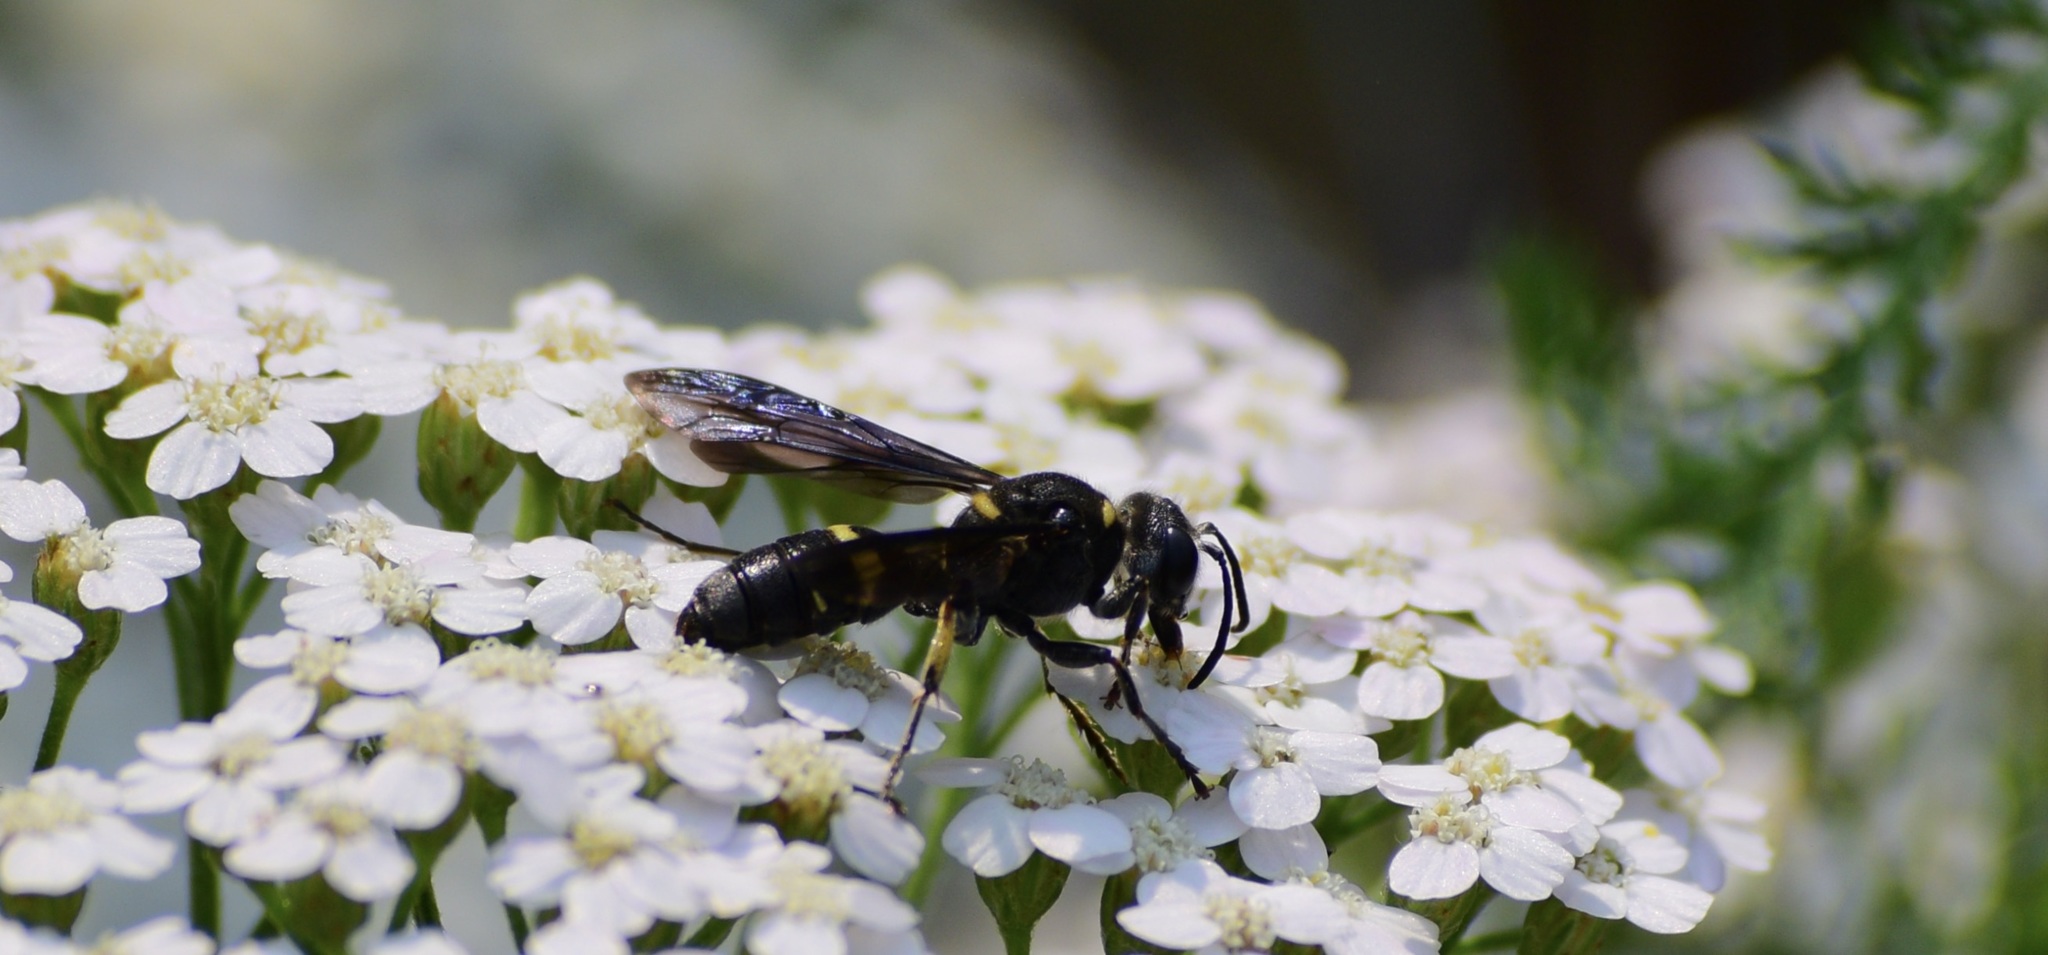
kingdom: Animalia
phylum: Arthropoda
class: Insecta
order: Hymenoptera
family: Crabronidae
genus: Cerceris
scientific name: Cerceris fumipennis
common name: Smokey-winged beetle bandit wasp
